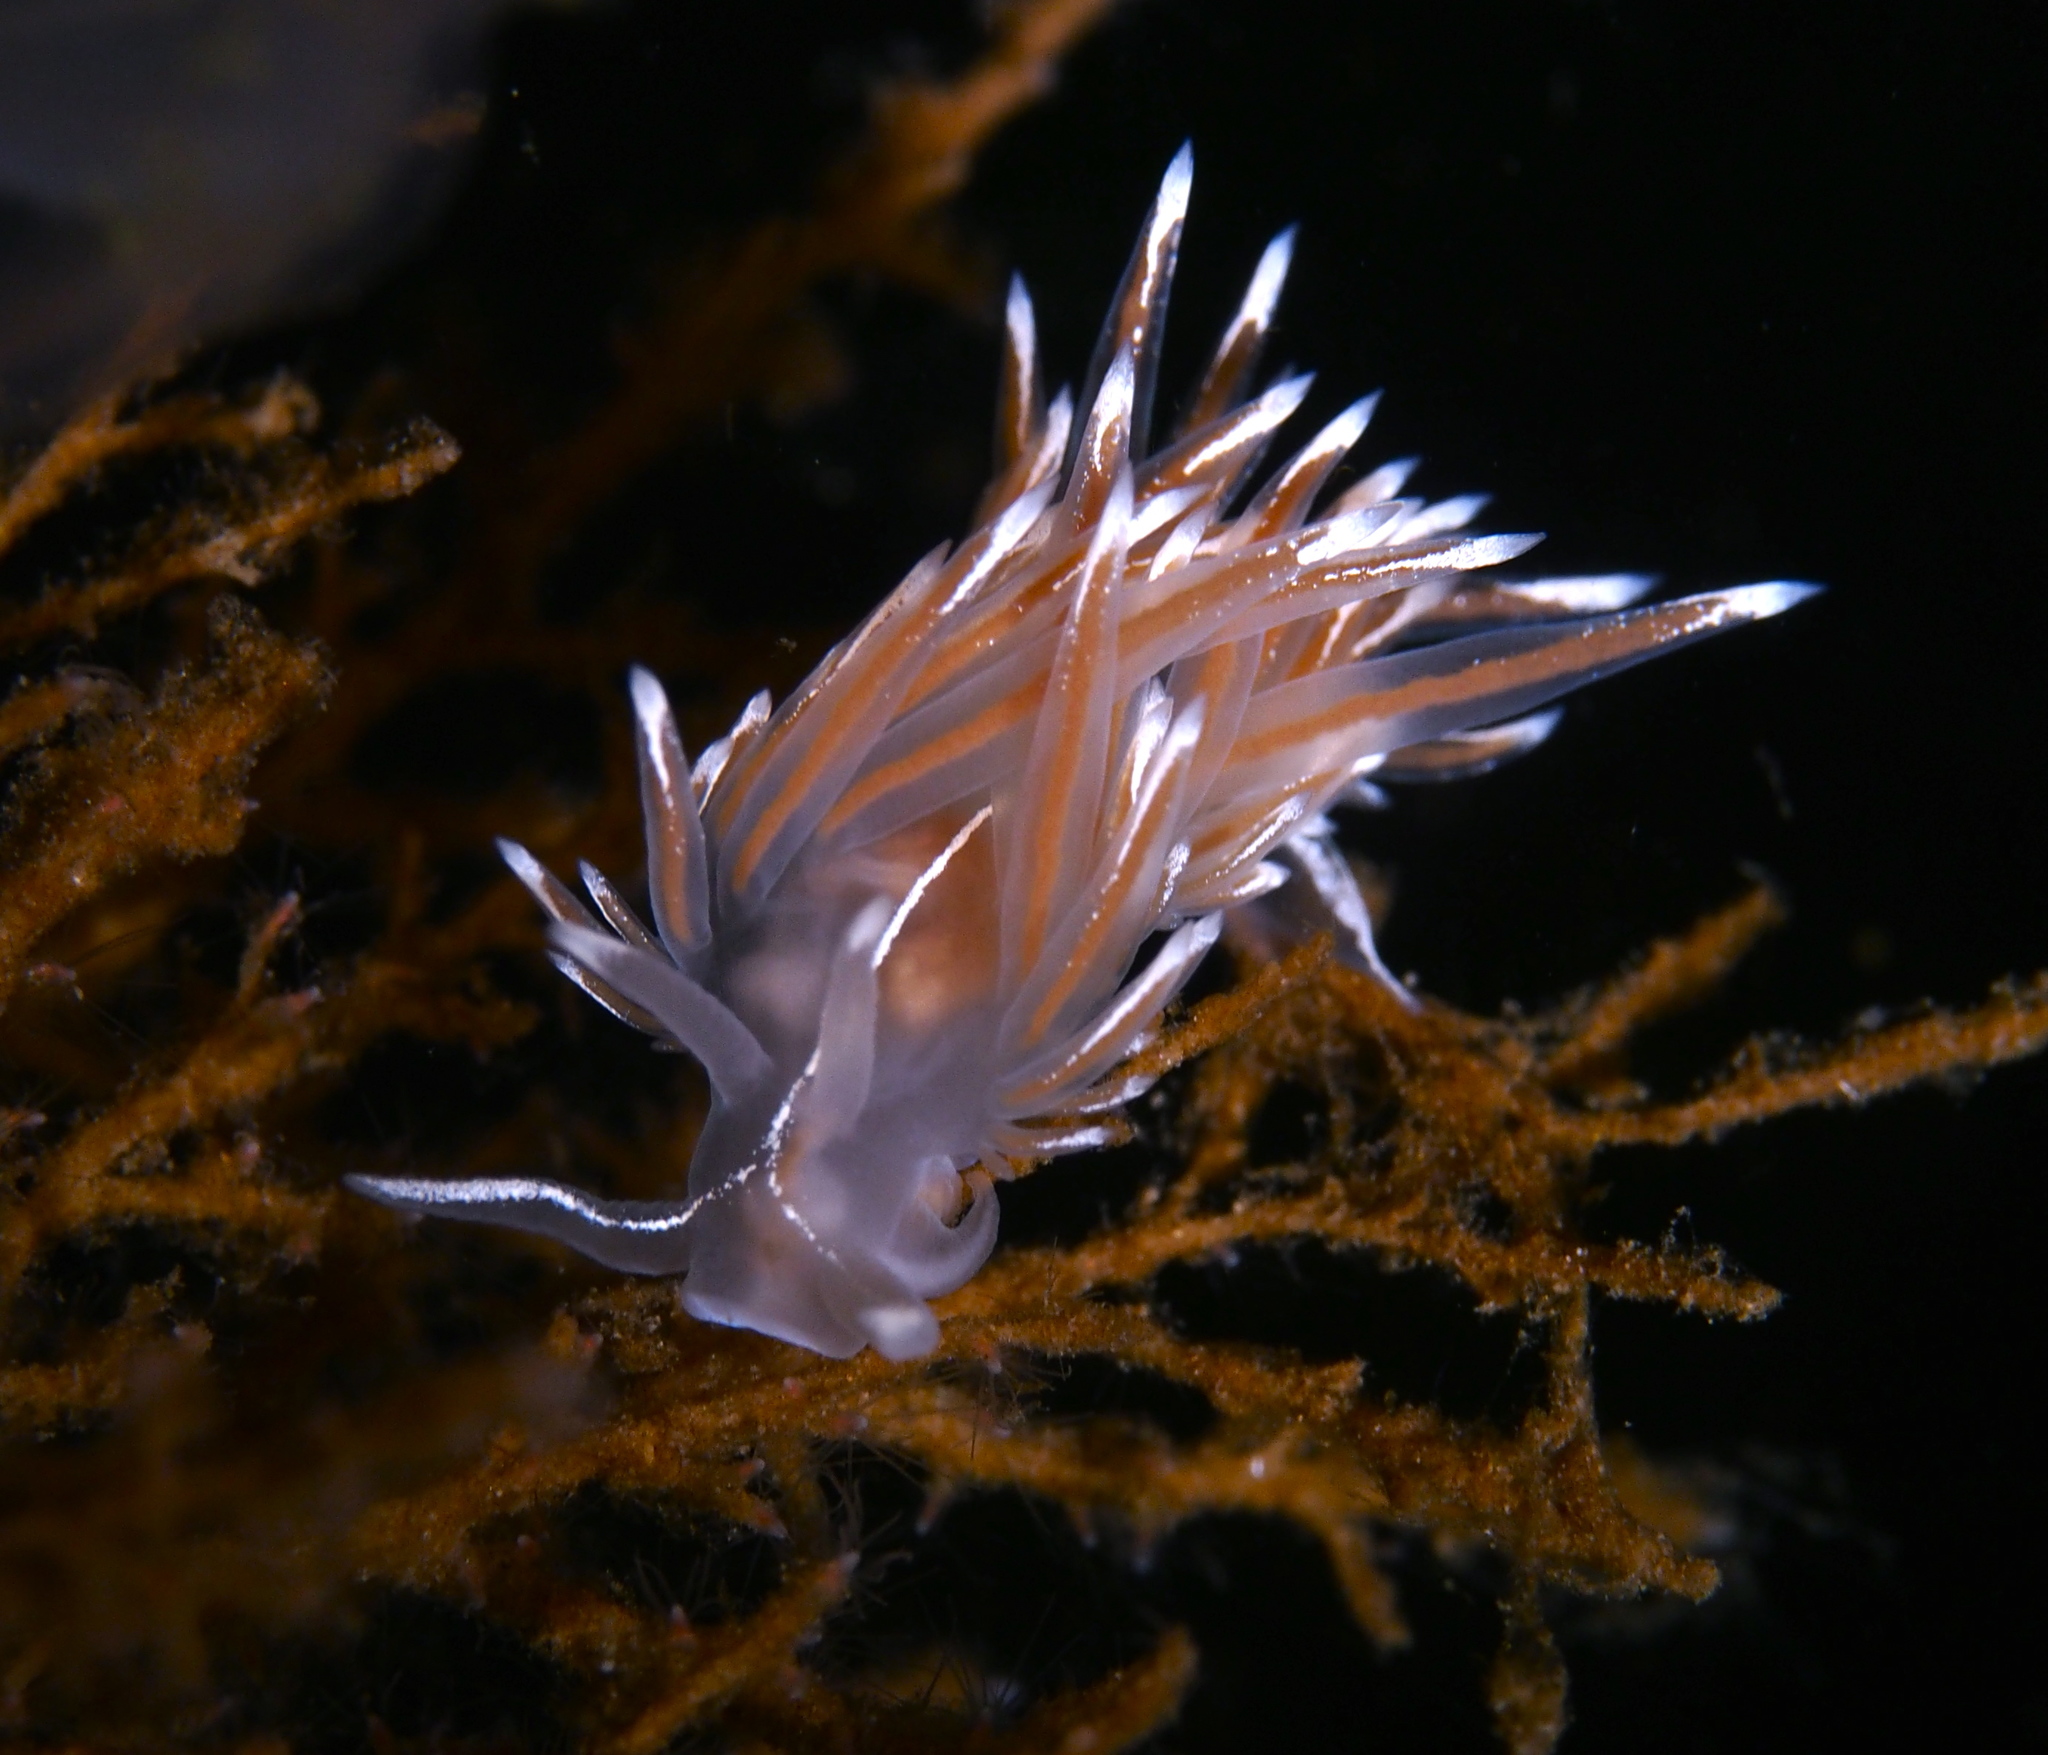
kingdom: Animalia
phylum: Mollusca
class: Gastropoda
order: Nudibranchia
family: Coryphellidae
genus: Coryphella
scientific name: Coryphella lineata
